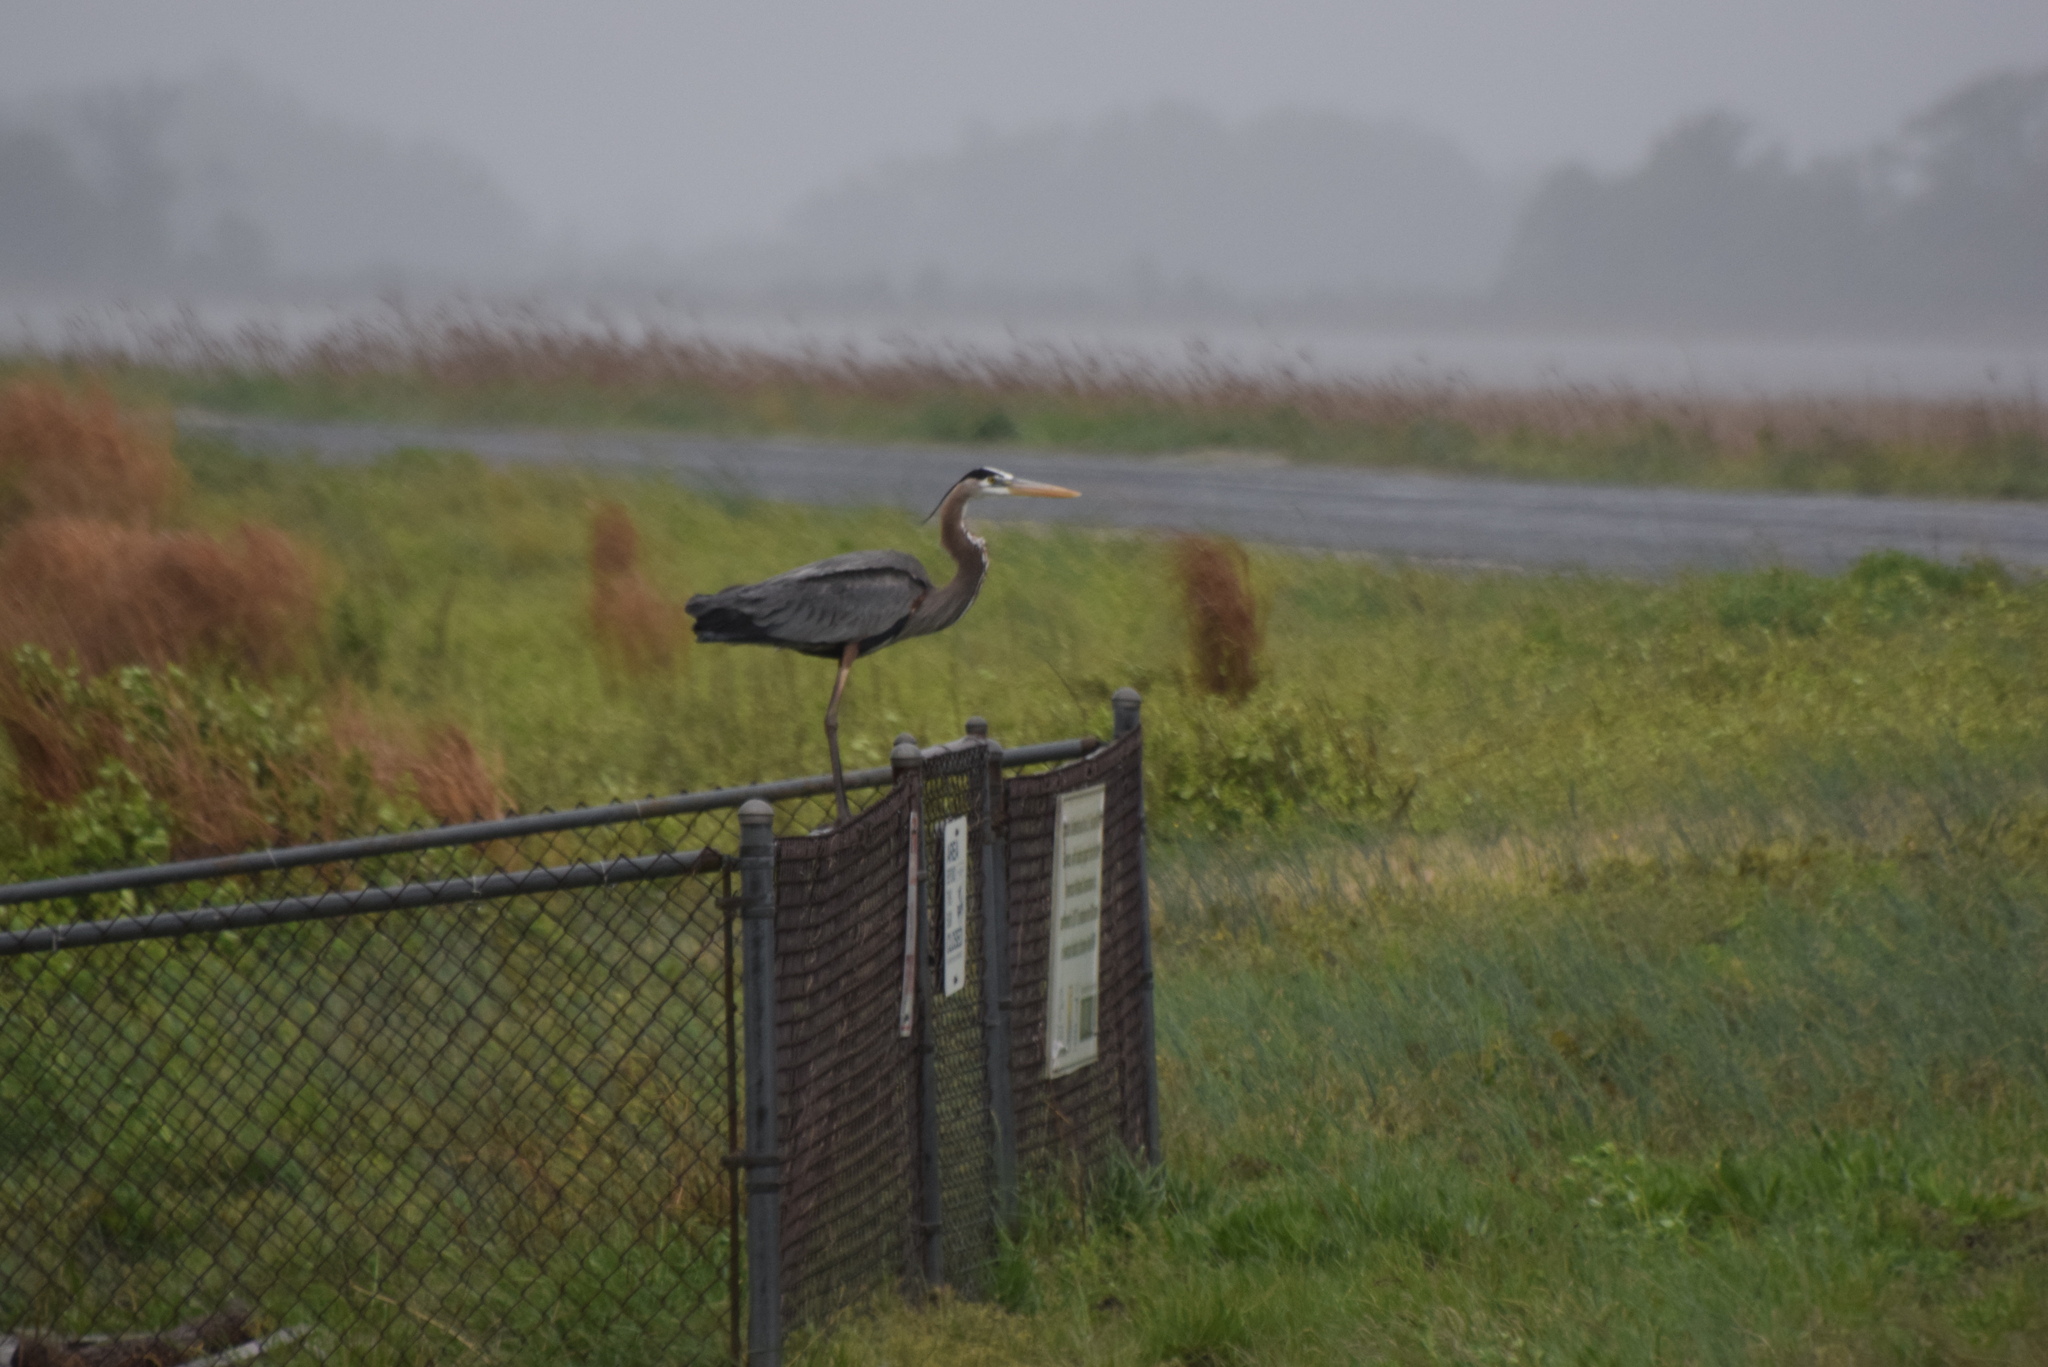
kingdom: Animalia
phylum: Chordata
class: Aves
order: Pelecaniformes
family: Ardeidae
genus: Ardea
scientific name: Ardea herodias
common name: Great blue heron
